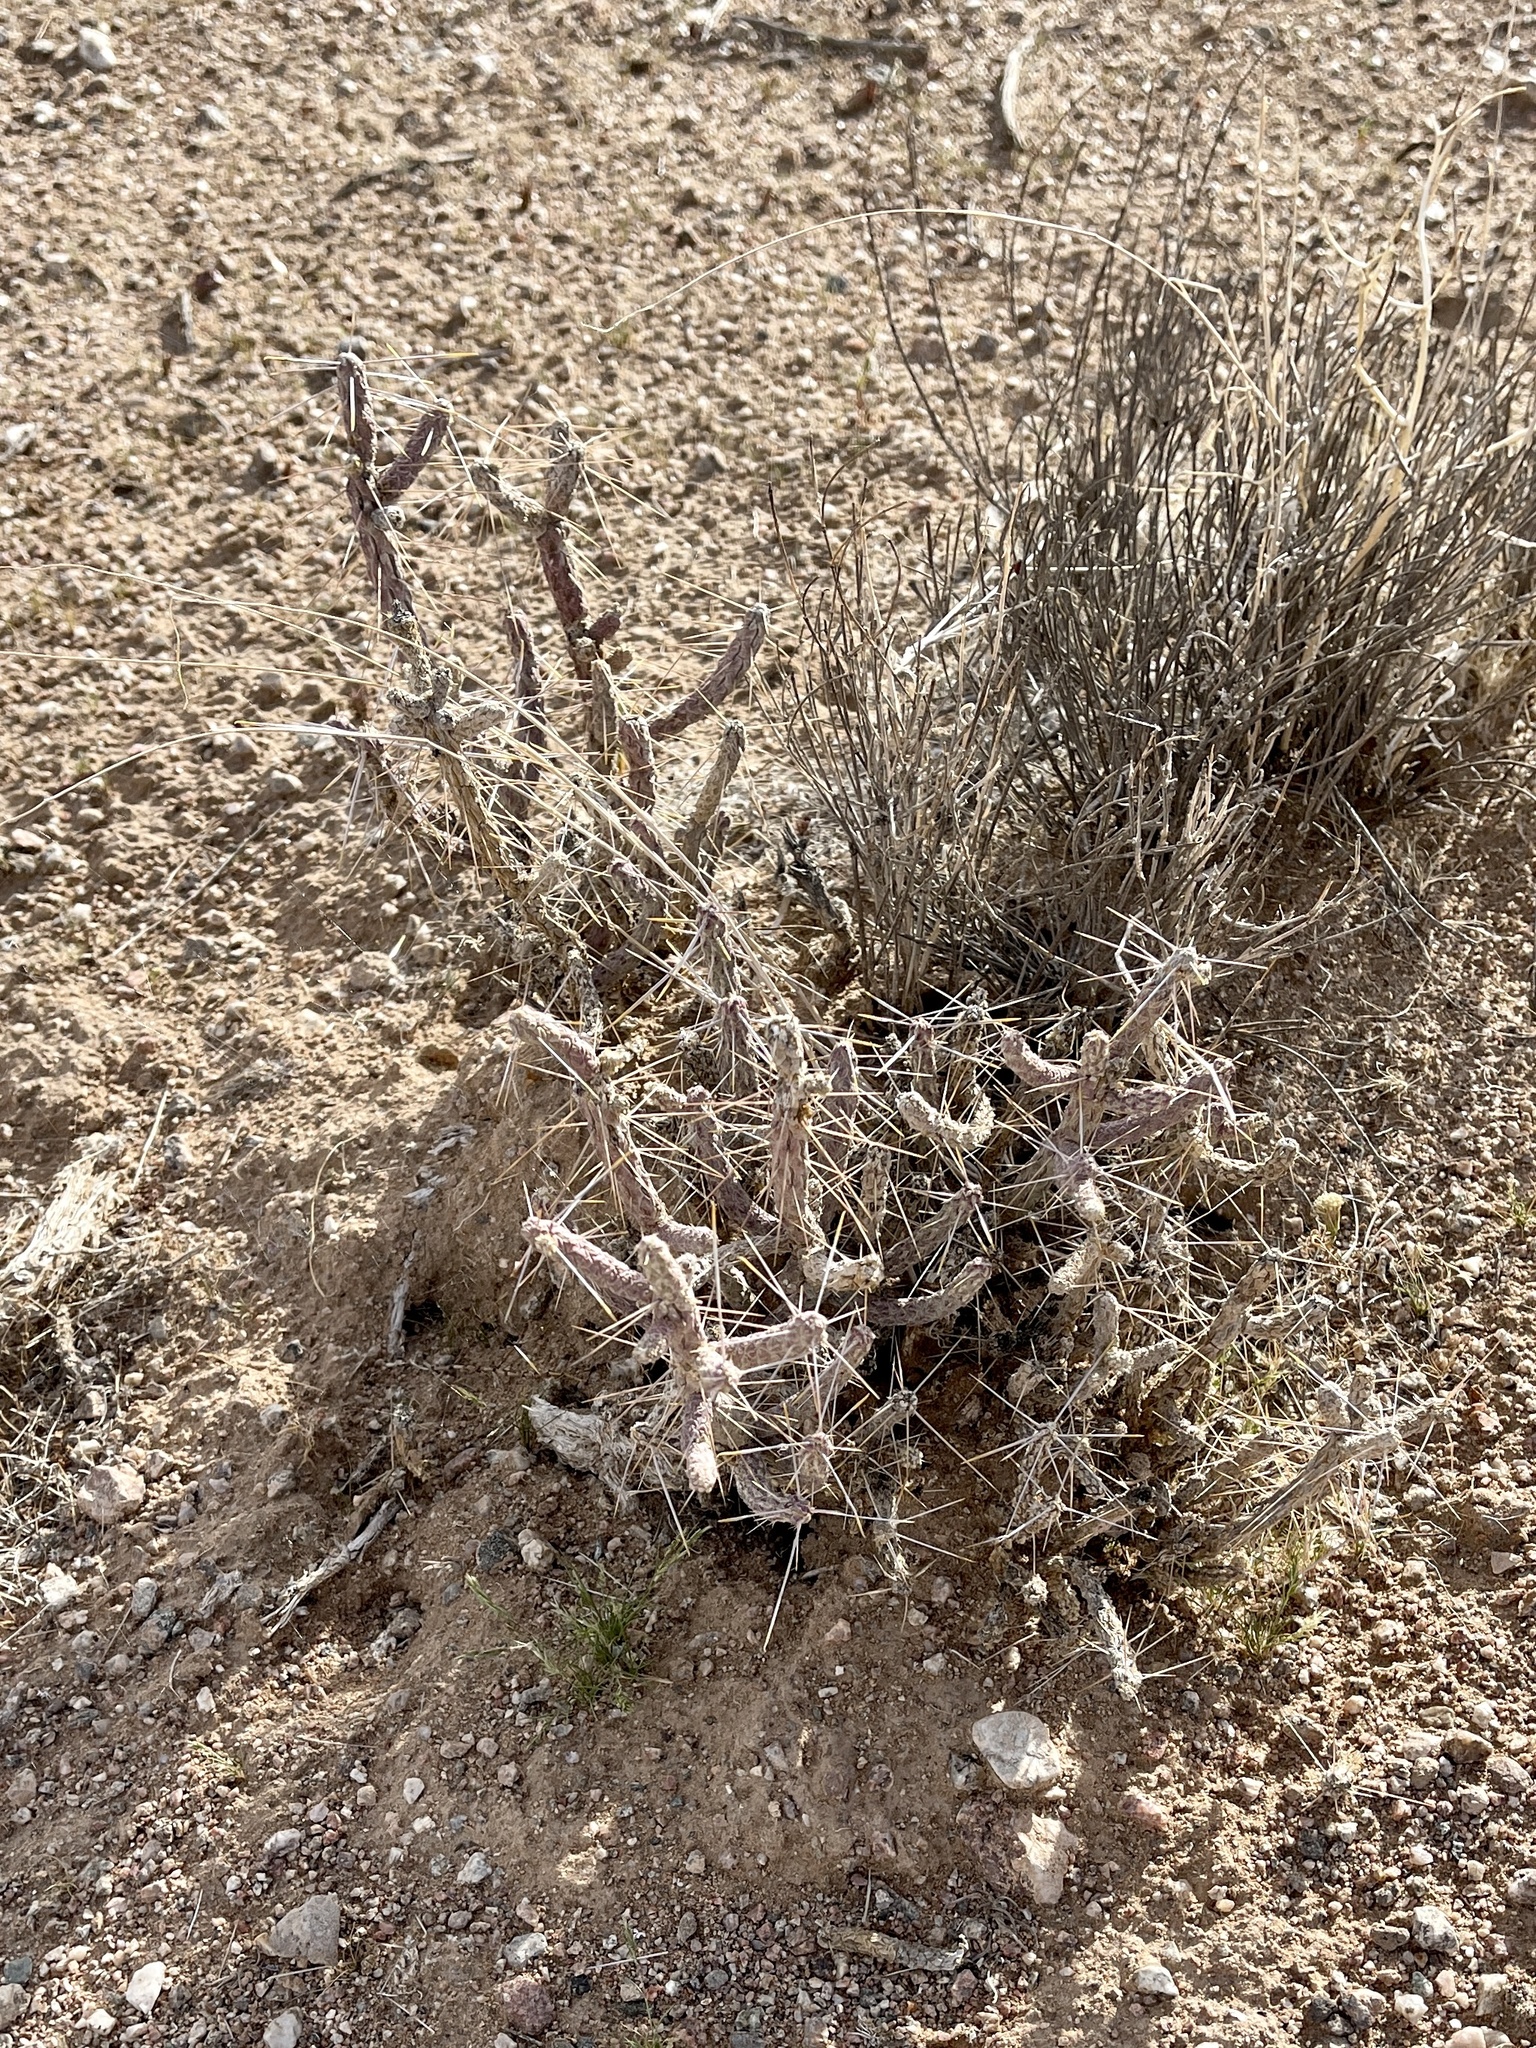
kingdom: Plantae
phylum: Tracheophyta
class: Magnoliopsida
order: Caryophyllales
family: Cactaceae
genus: Cylindropuntia
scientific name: Cylindropuntia ramosissima
